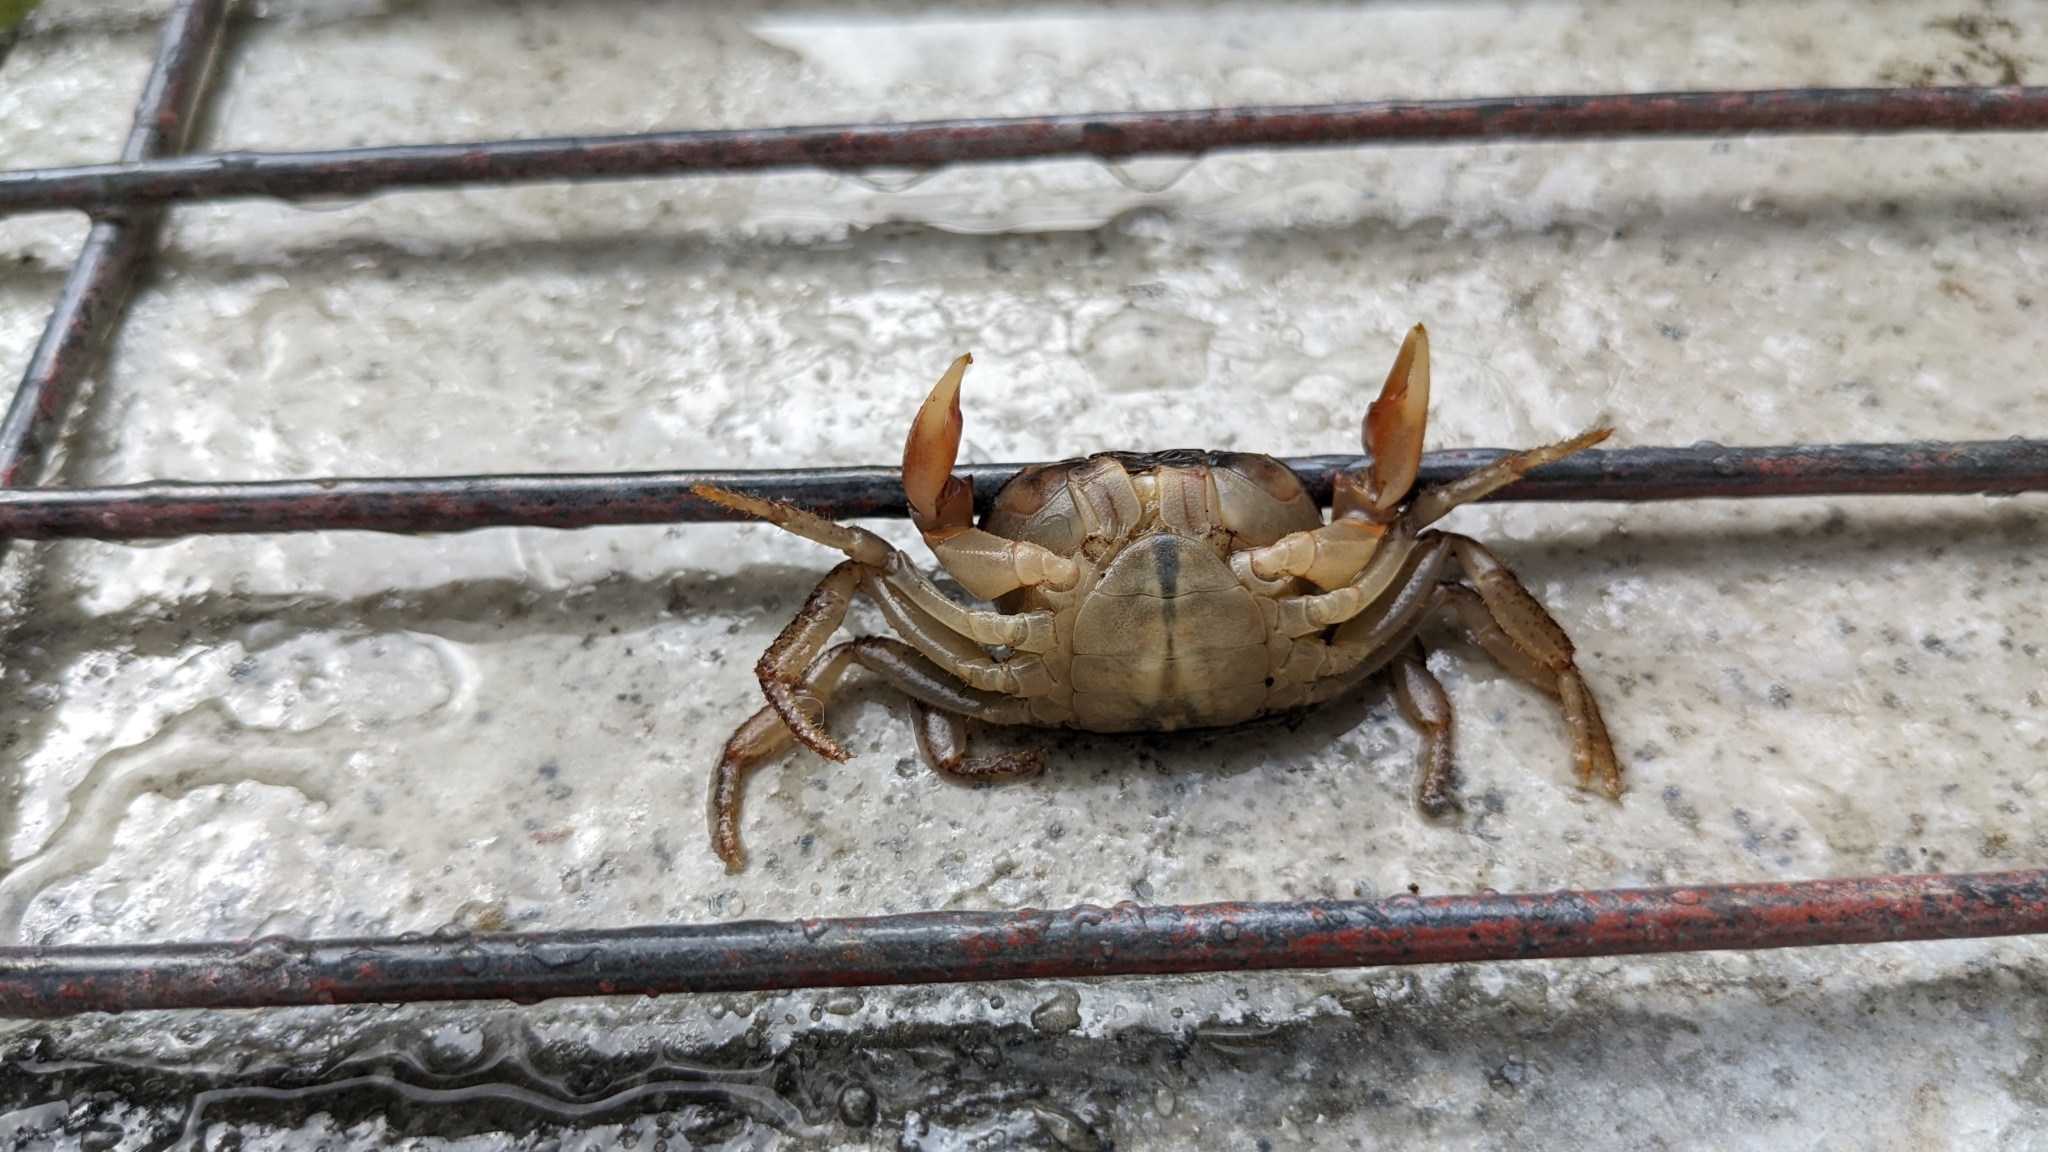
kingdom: Animalia
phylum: Arthropoda
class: Malacostraca
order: Decapoda
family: Potamidae
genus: Geothelphusa
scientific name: Geothelphusa
